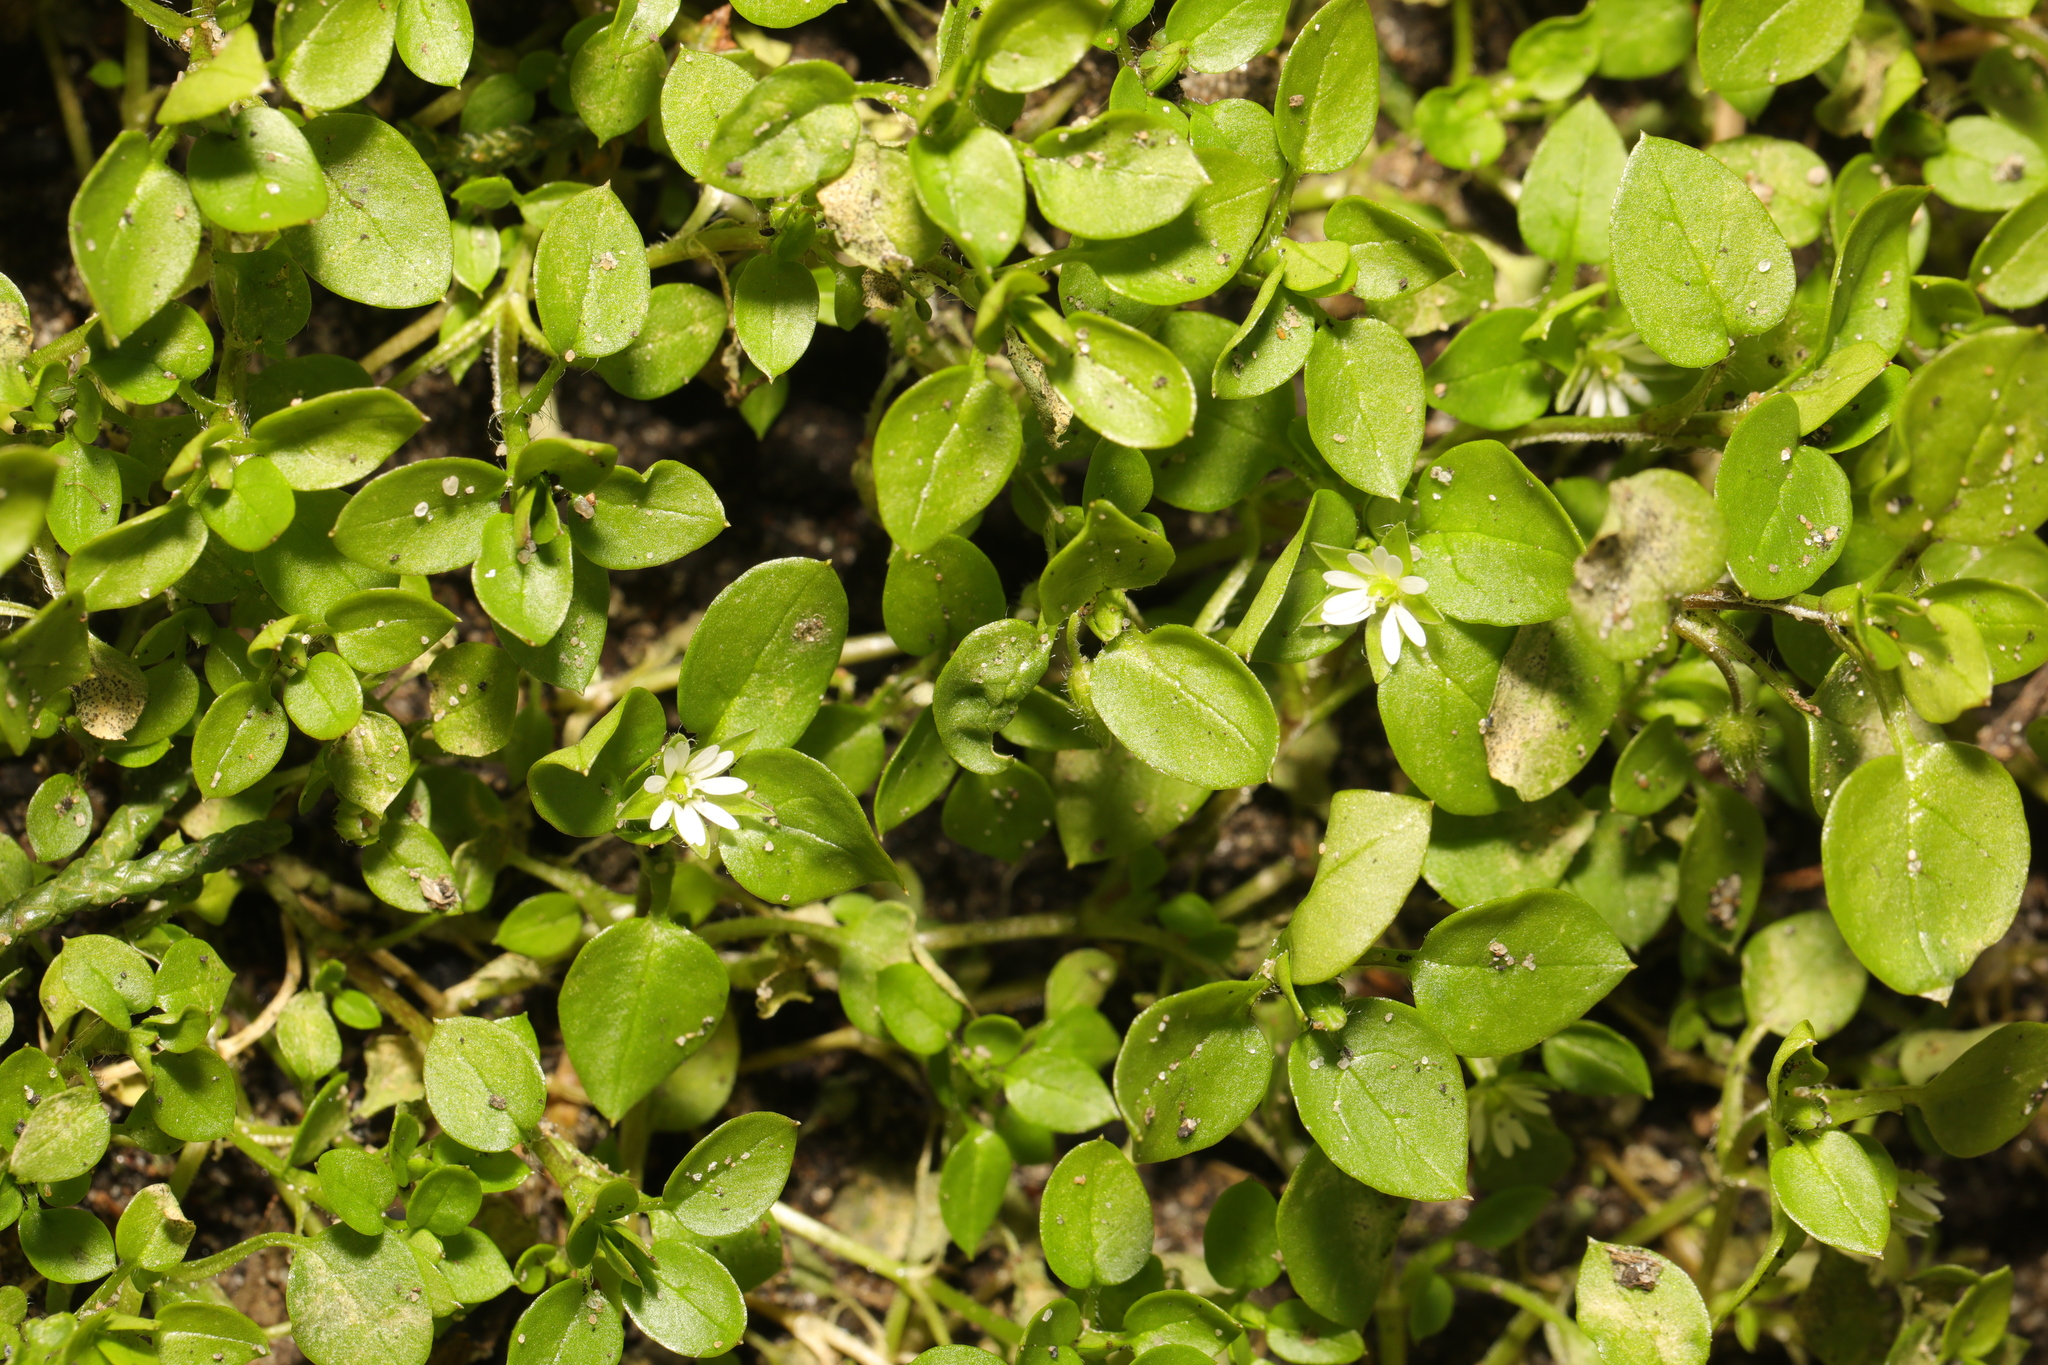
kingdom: Plantae
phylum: Tracheophyta
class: Magnoliopsida
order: Caryophyllales
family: Caryophyllaceae
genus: Stellaria
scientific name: Stellaria media
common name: Common chickweed
